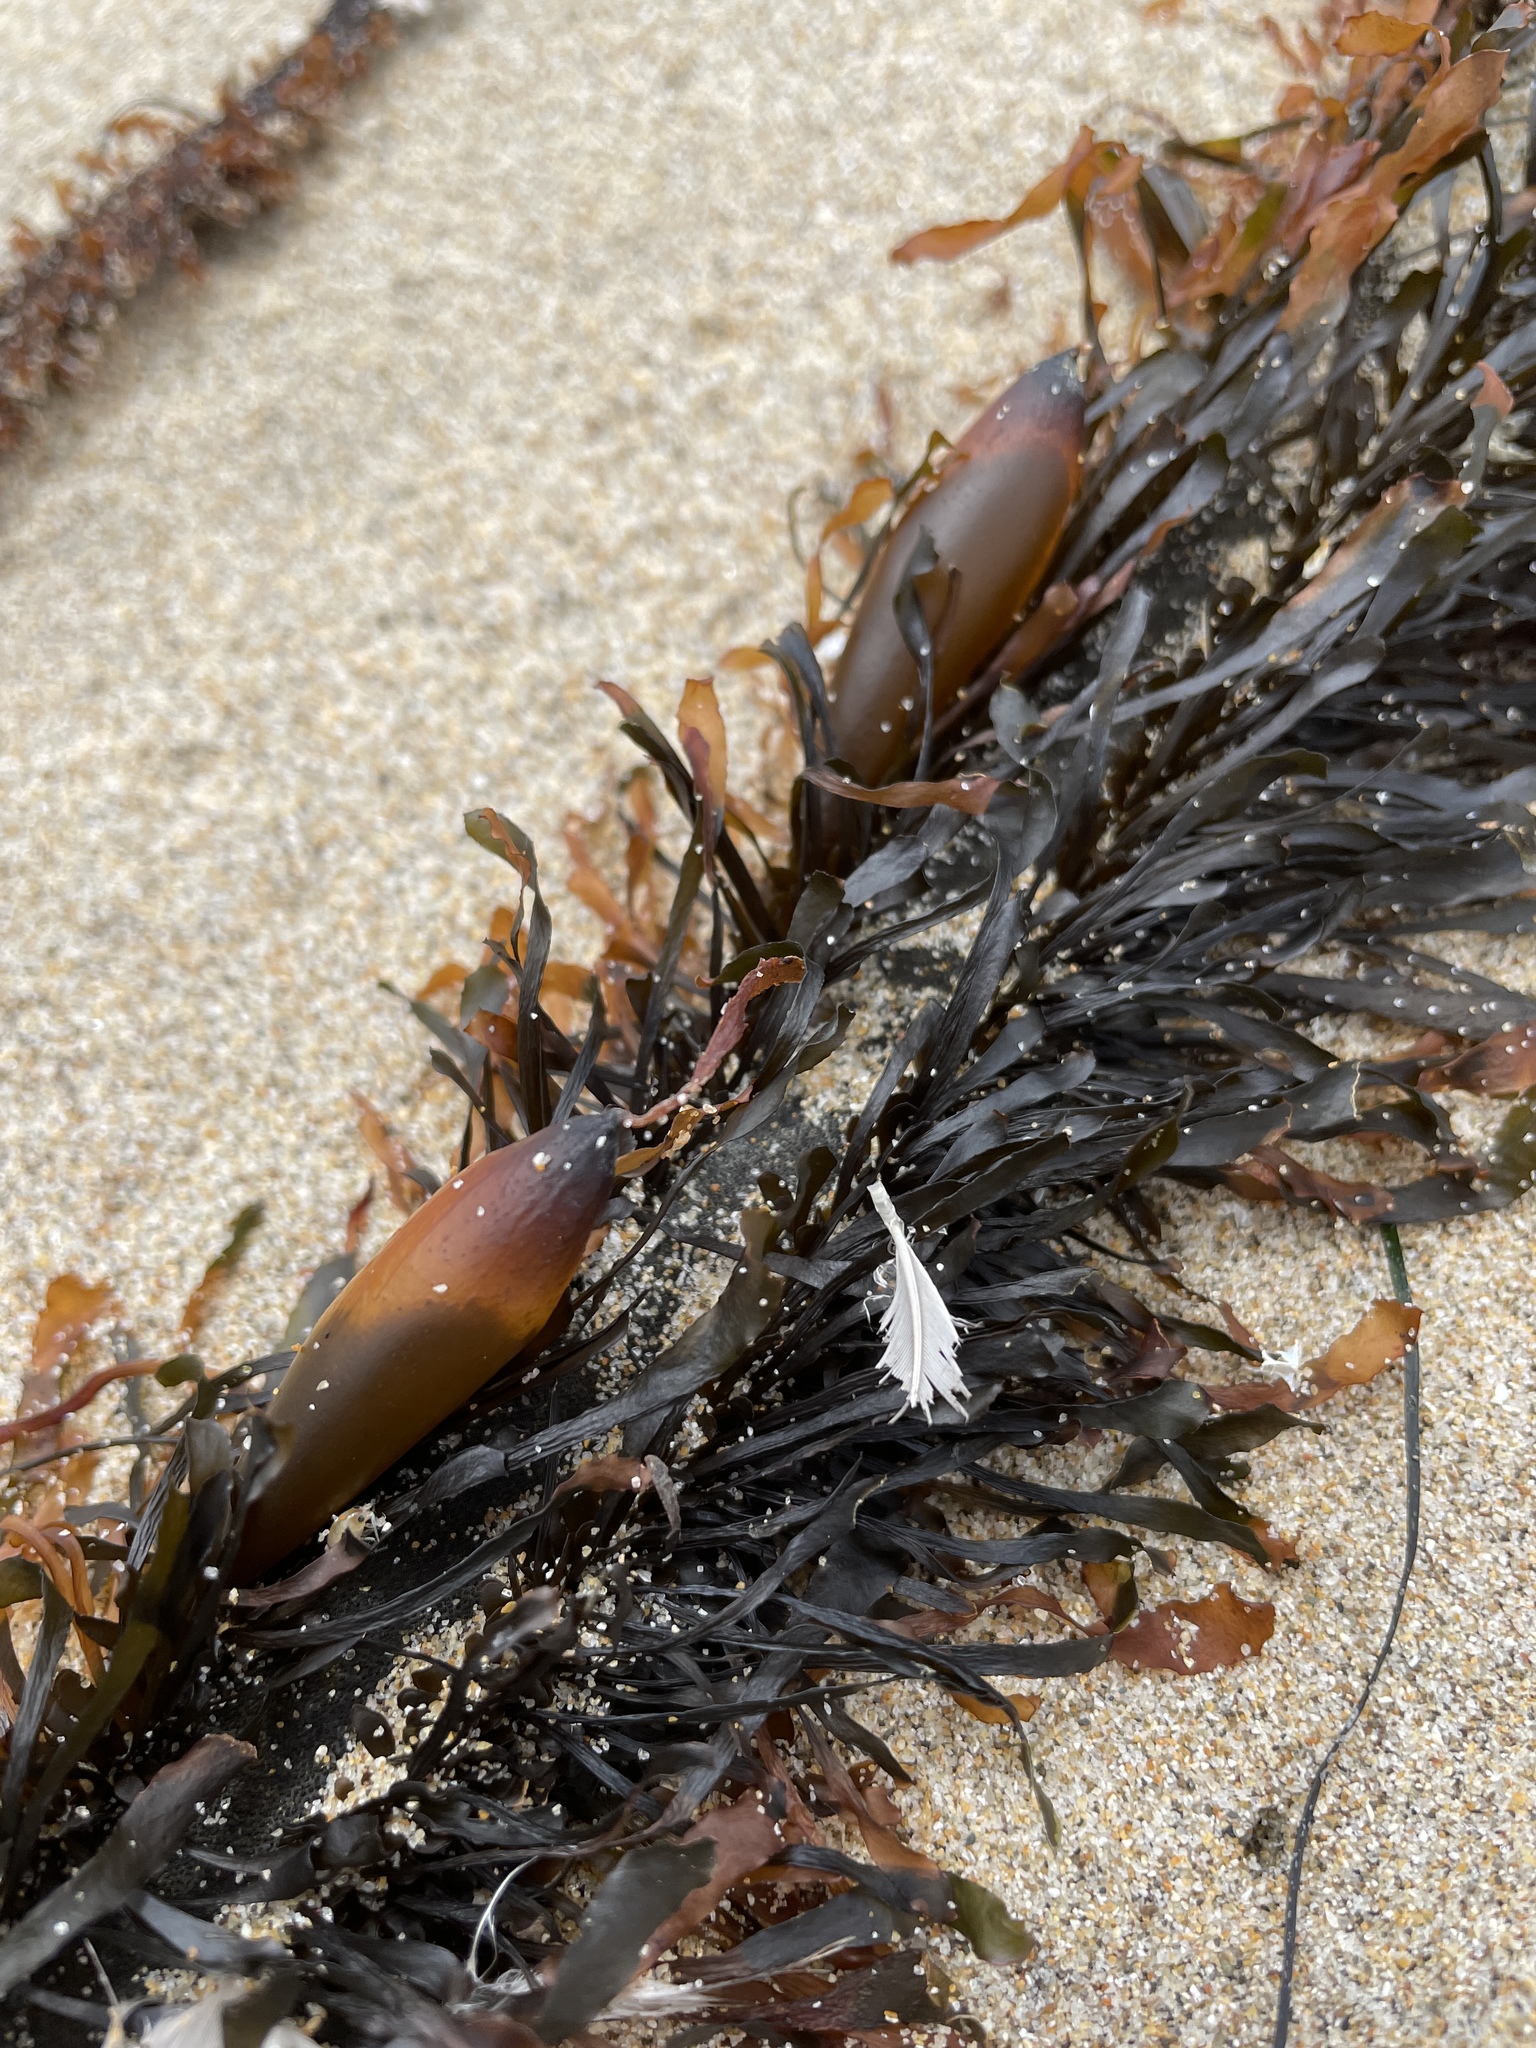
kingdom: Chromista
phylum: Ochrophyta
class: Phaeophyceae
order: Laminariales
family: Lessoniaceae
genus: Egregia
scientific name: Egregia menziesii
